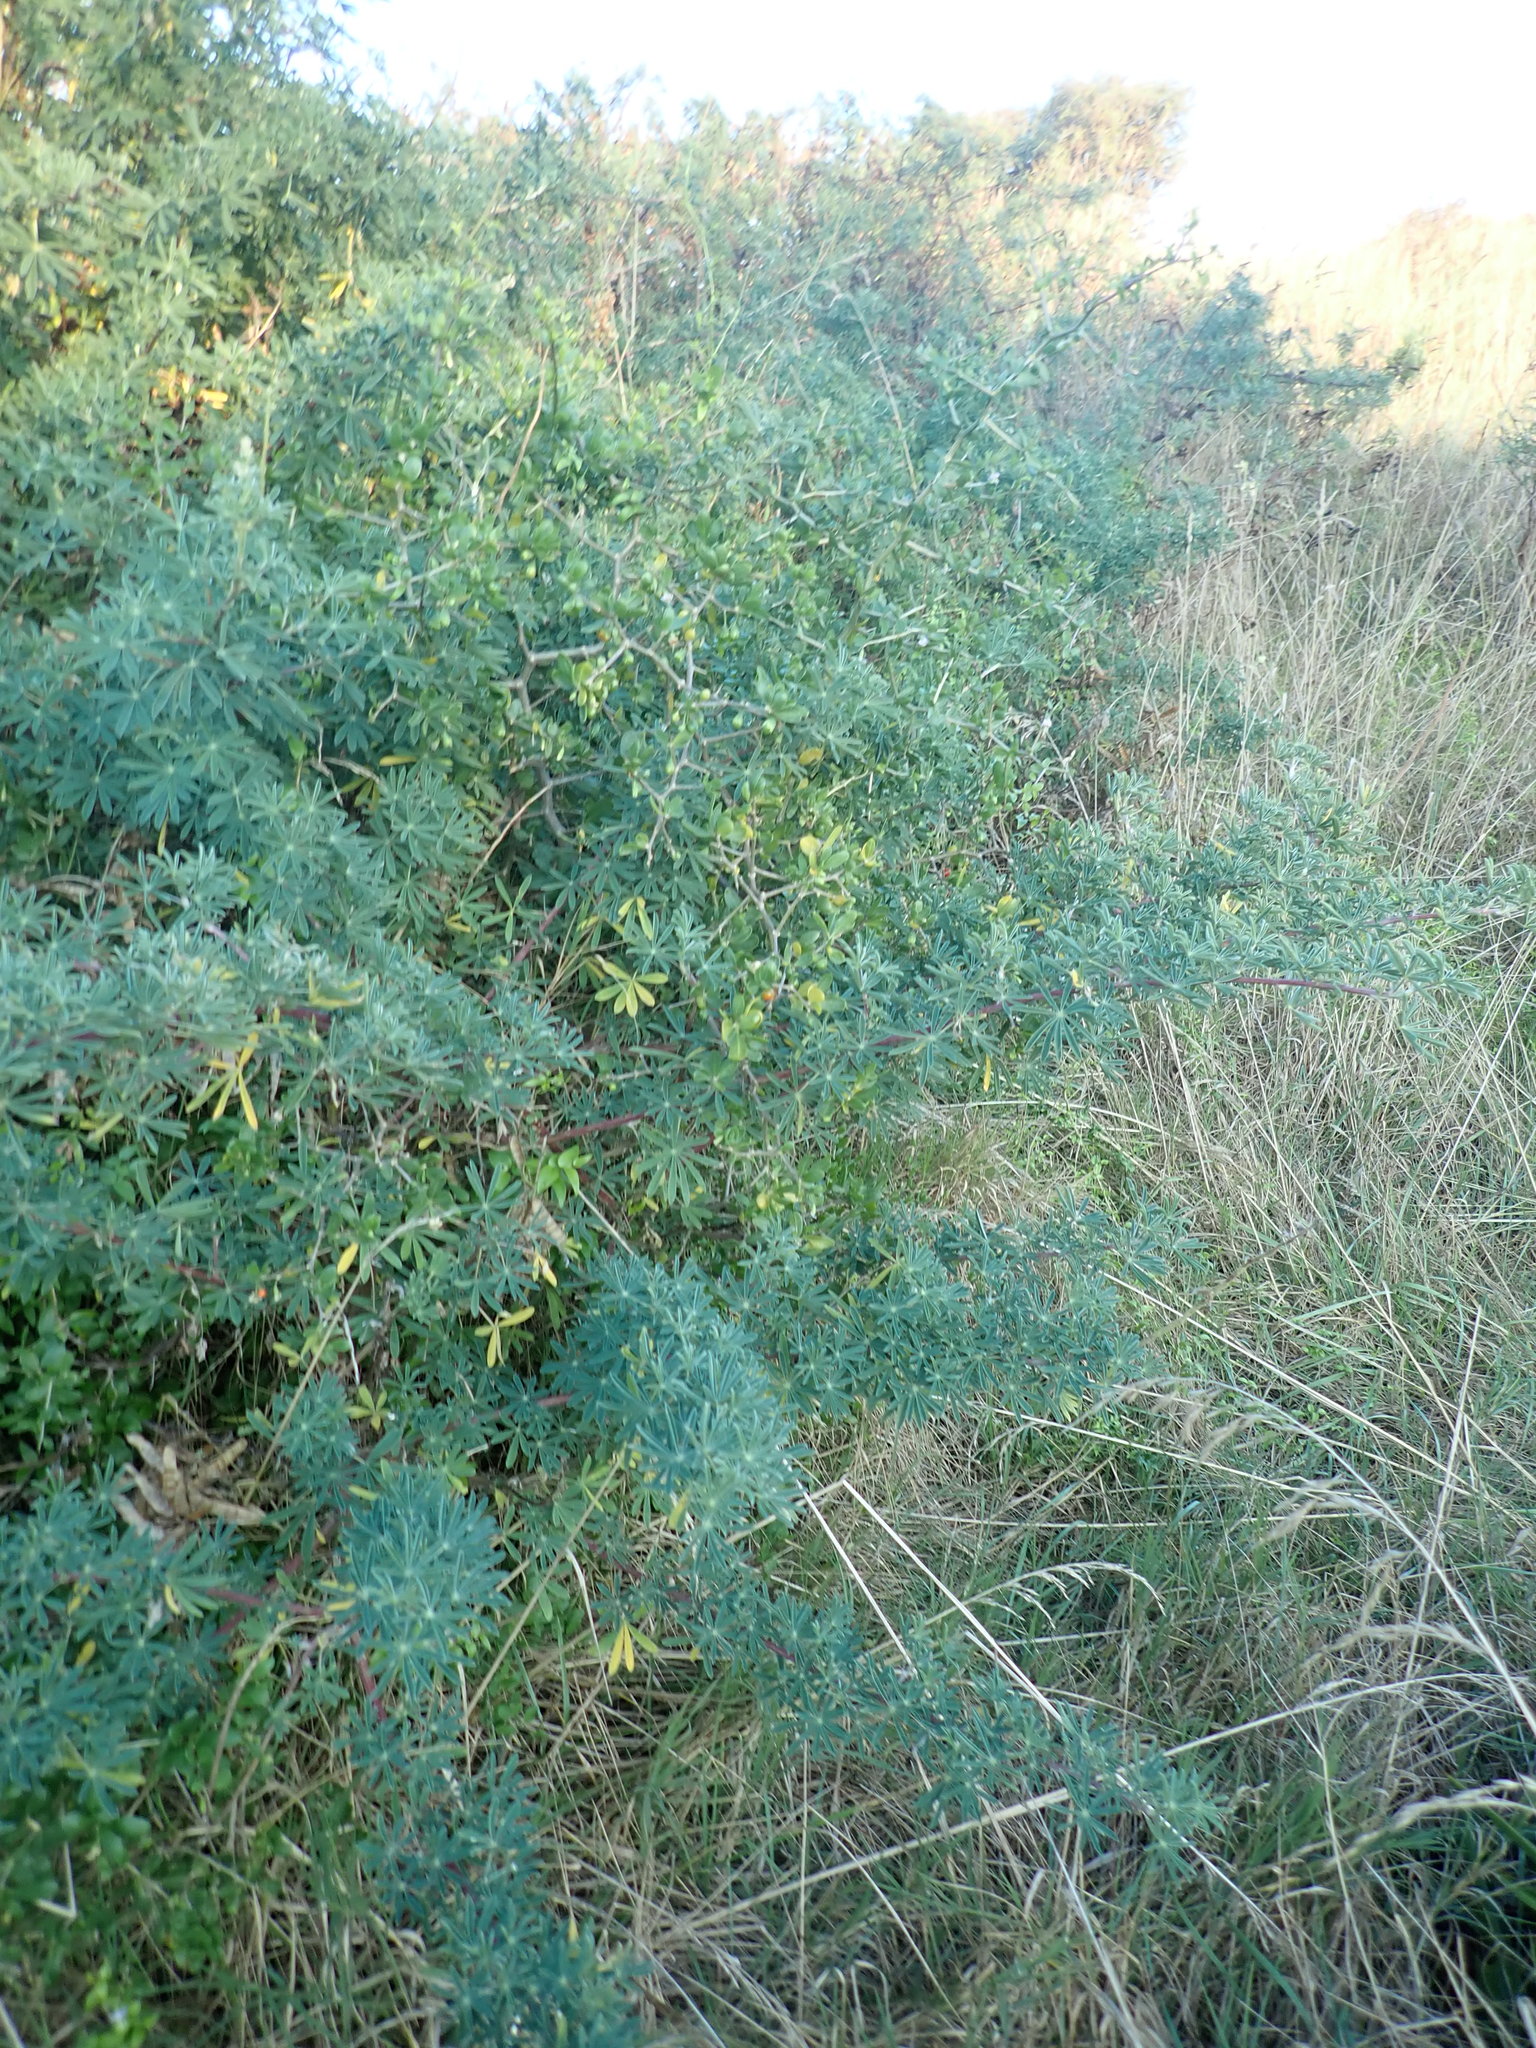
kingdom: Plantae
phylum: Tracheophyta
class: Magnoliopsida
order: Fabales
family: Fabaceae
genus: Lupinus
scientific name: Lupinus arboreus
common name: Yellow bush lupine
